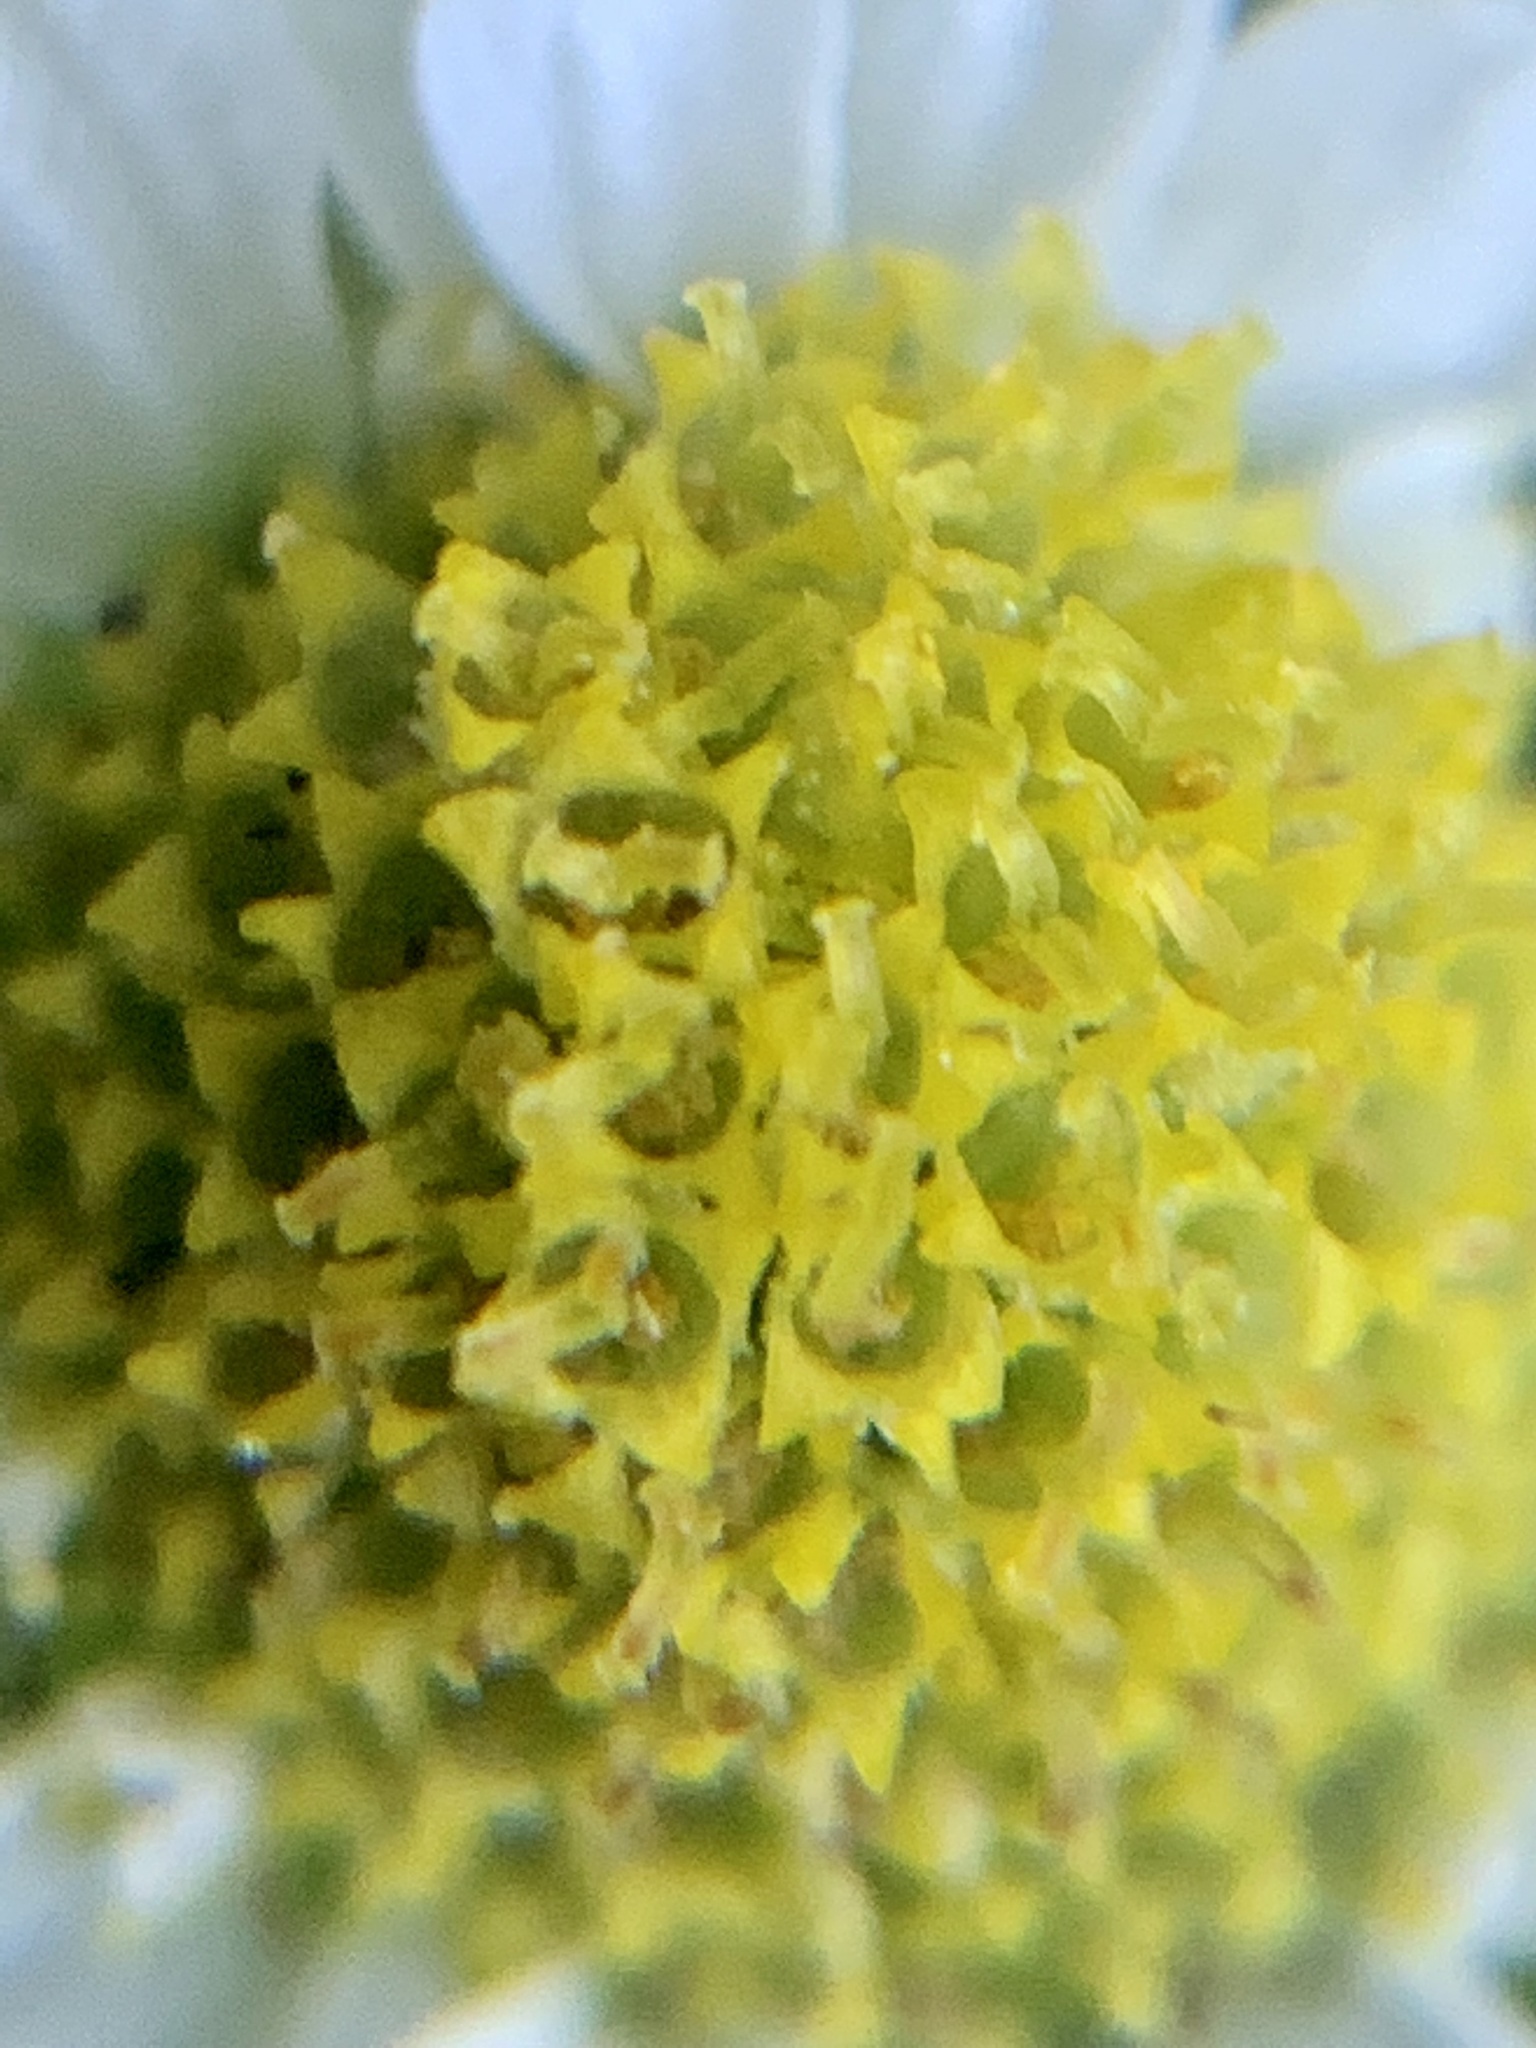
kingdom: Plantae
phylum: Tracheophyta
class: Magnoliopsida
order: Asterales
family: Asteraceae
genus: Tanacetum
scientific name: Tanacetum parthenium
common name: Feverfew
